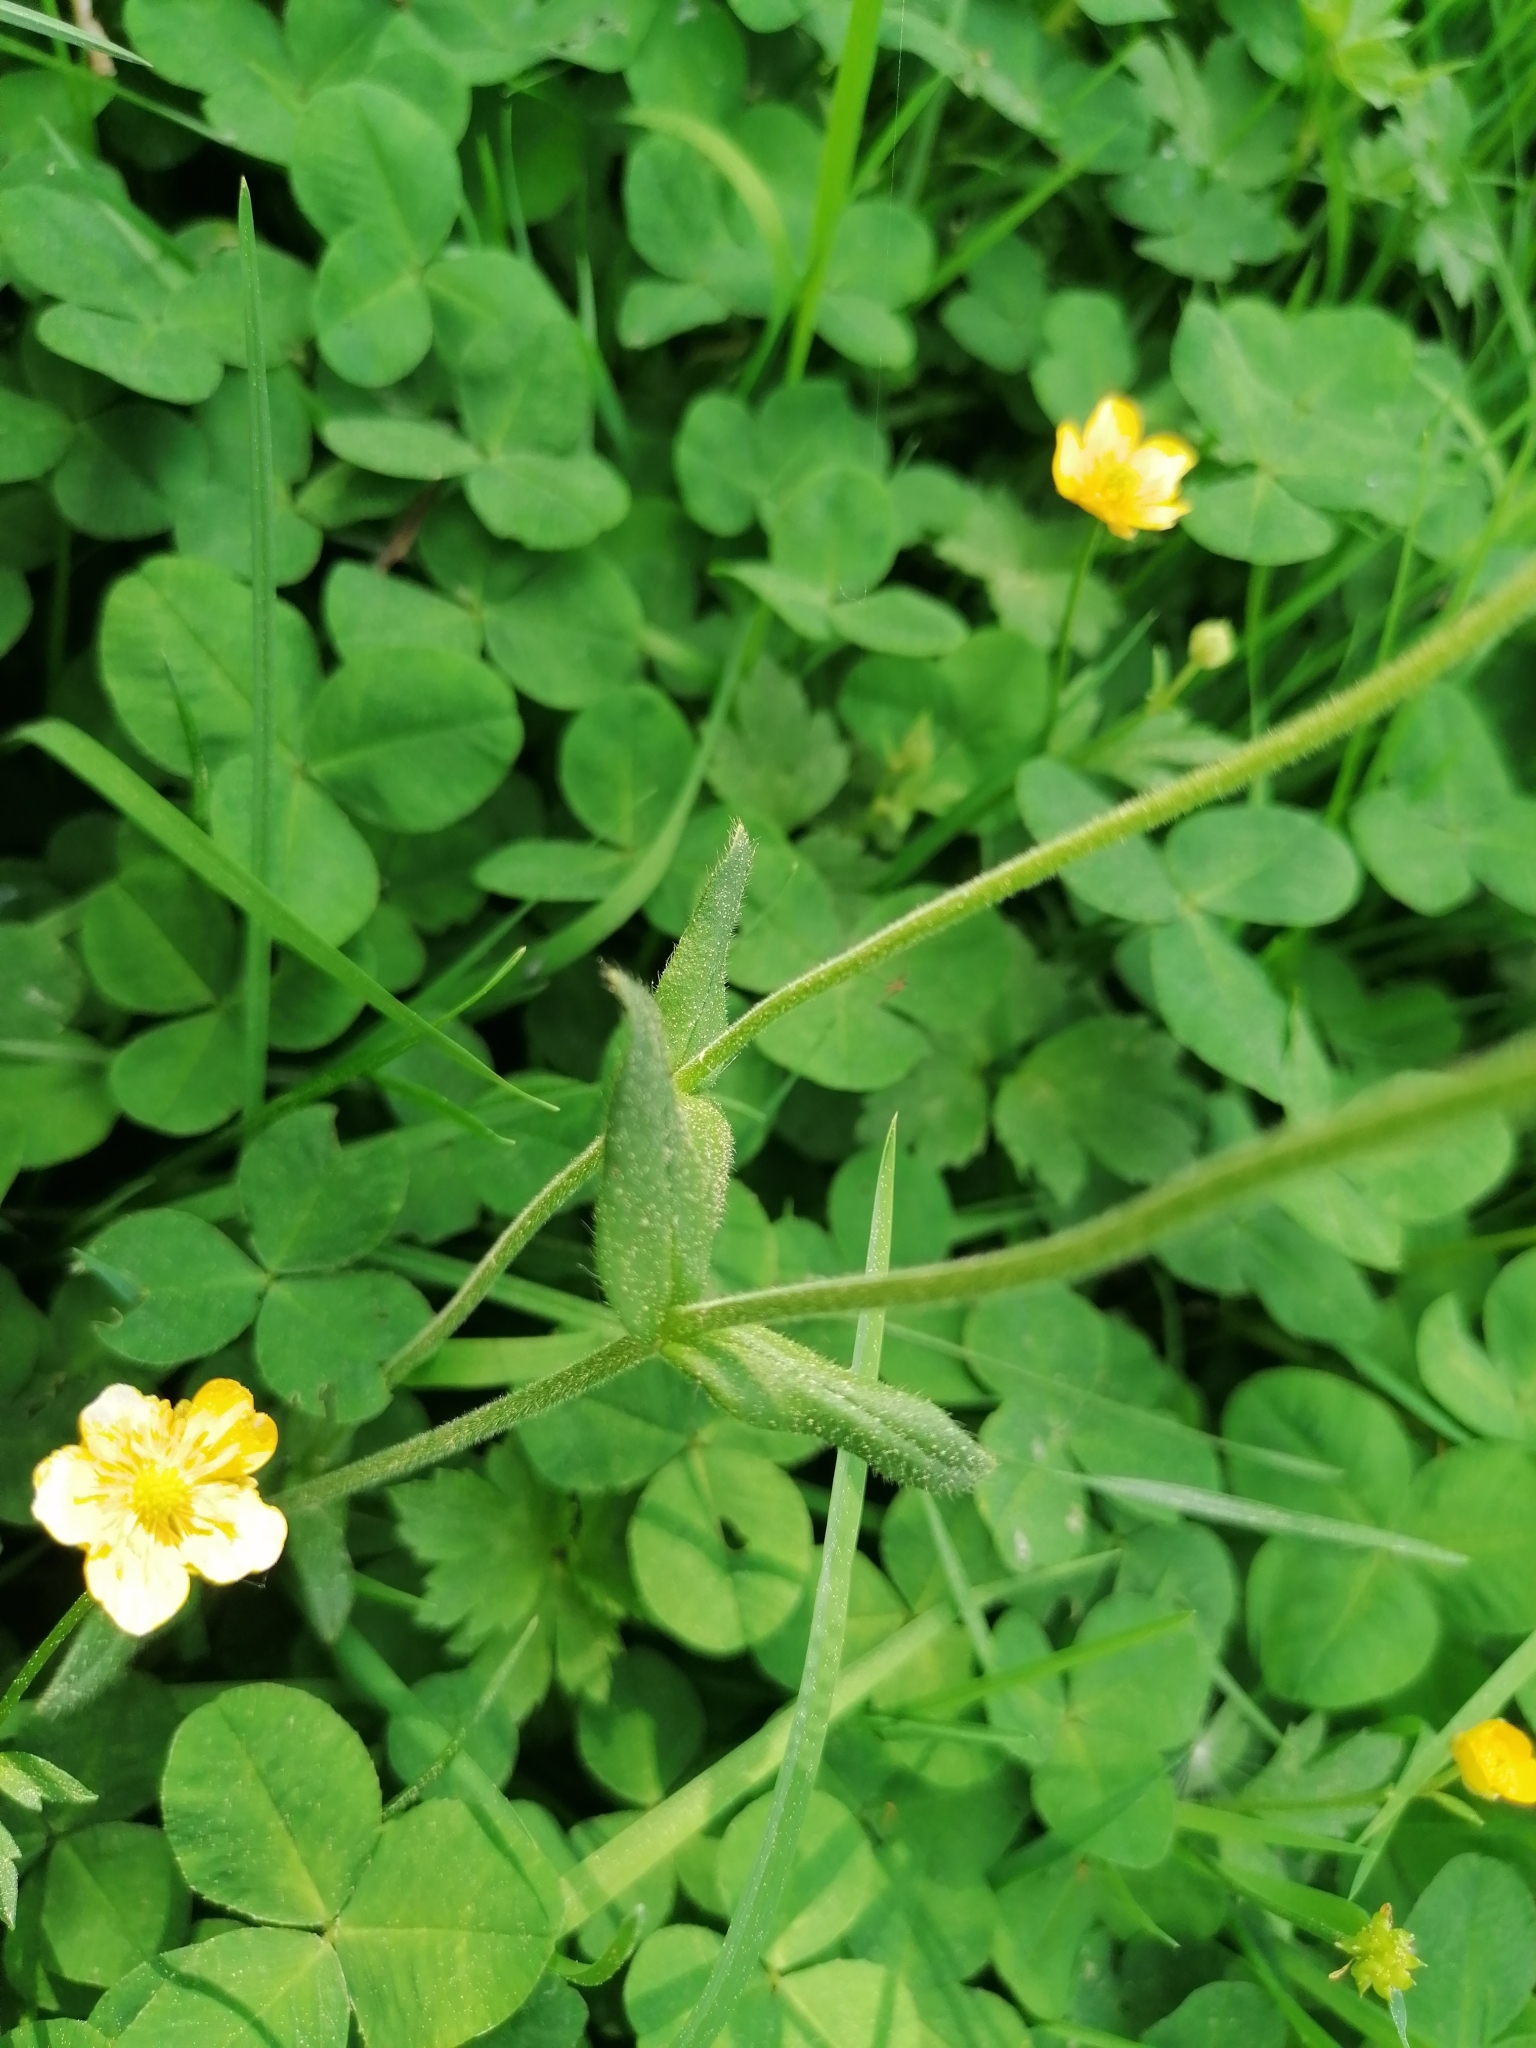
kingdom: Plantae
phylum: Tracheophyta
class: Magnoliopsida
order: Caryophyllales
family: Caryophyllaceae
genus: Cerastium
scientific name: Cerastium holosteoides
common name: Big chickweed
